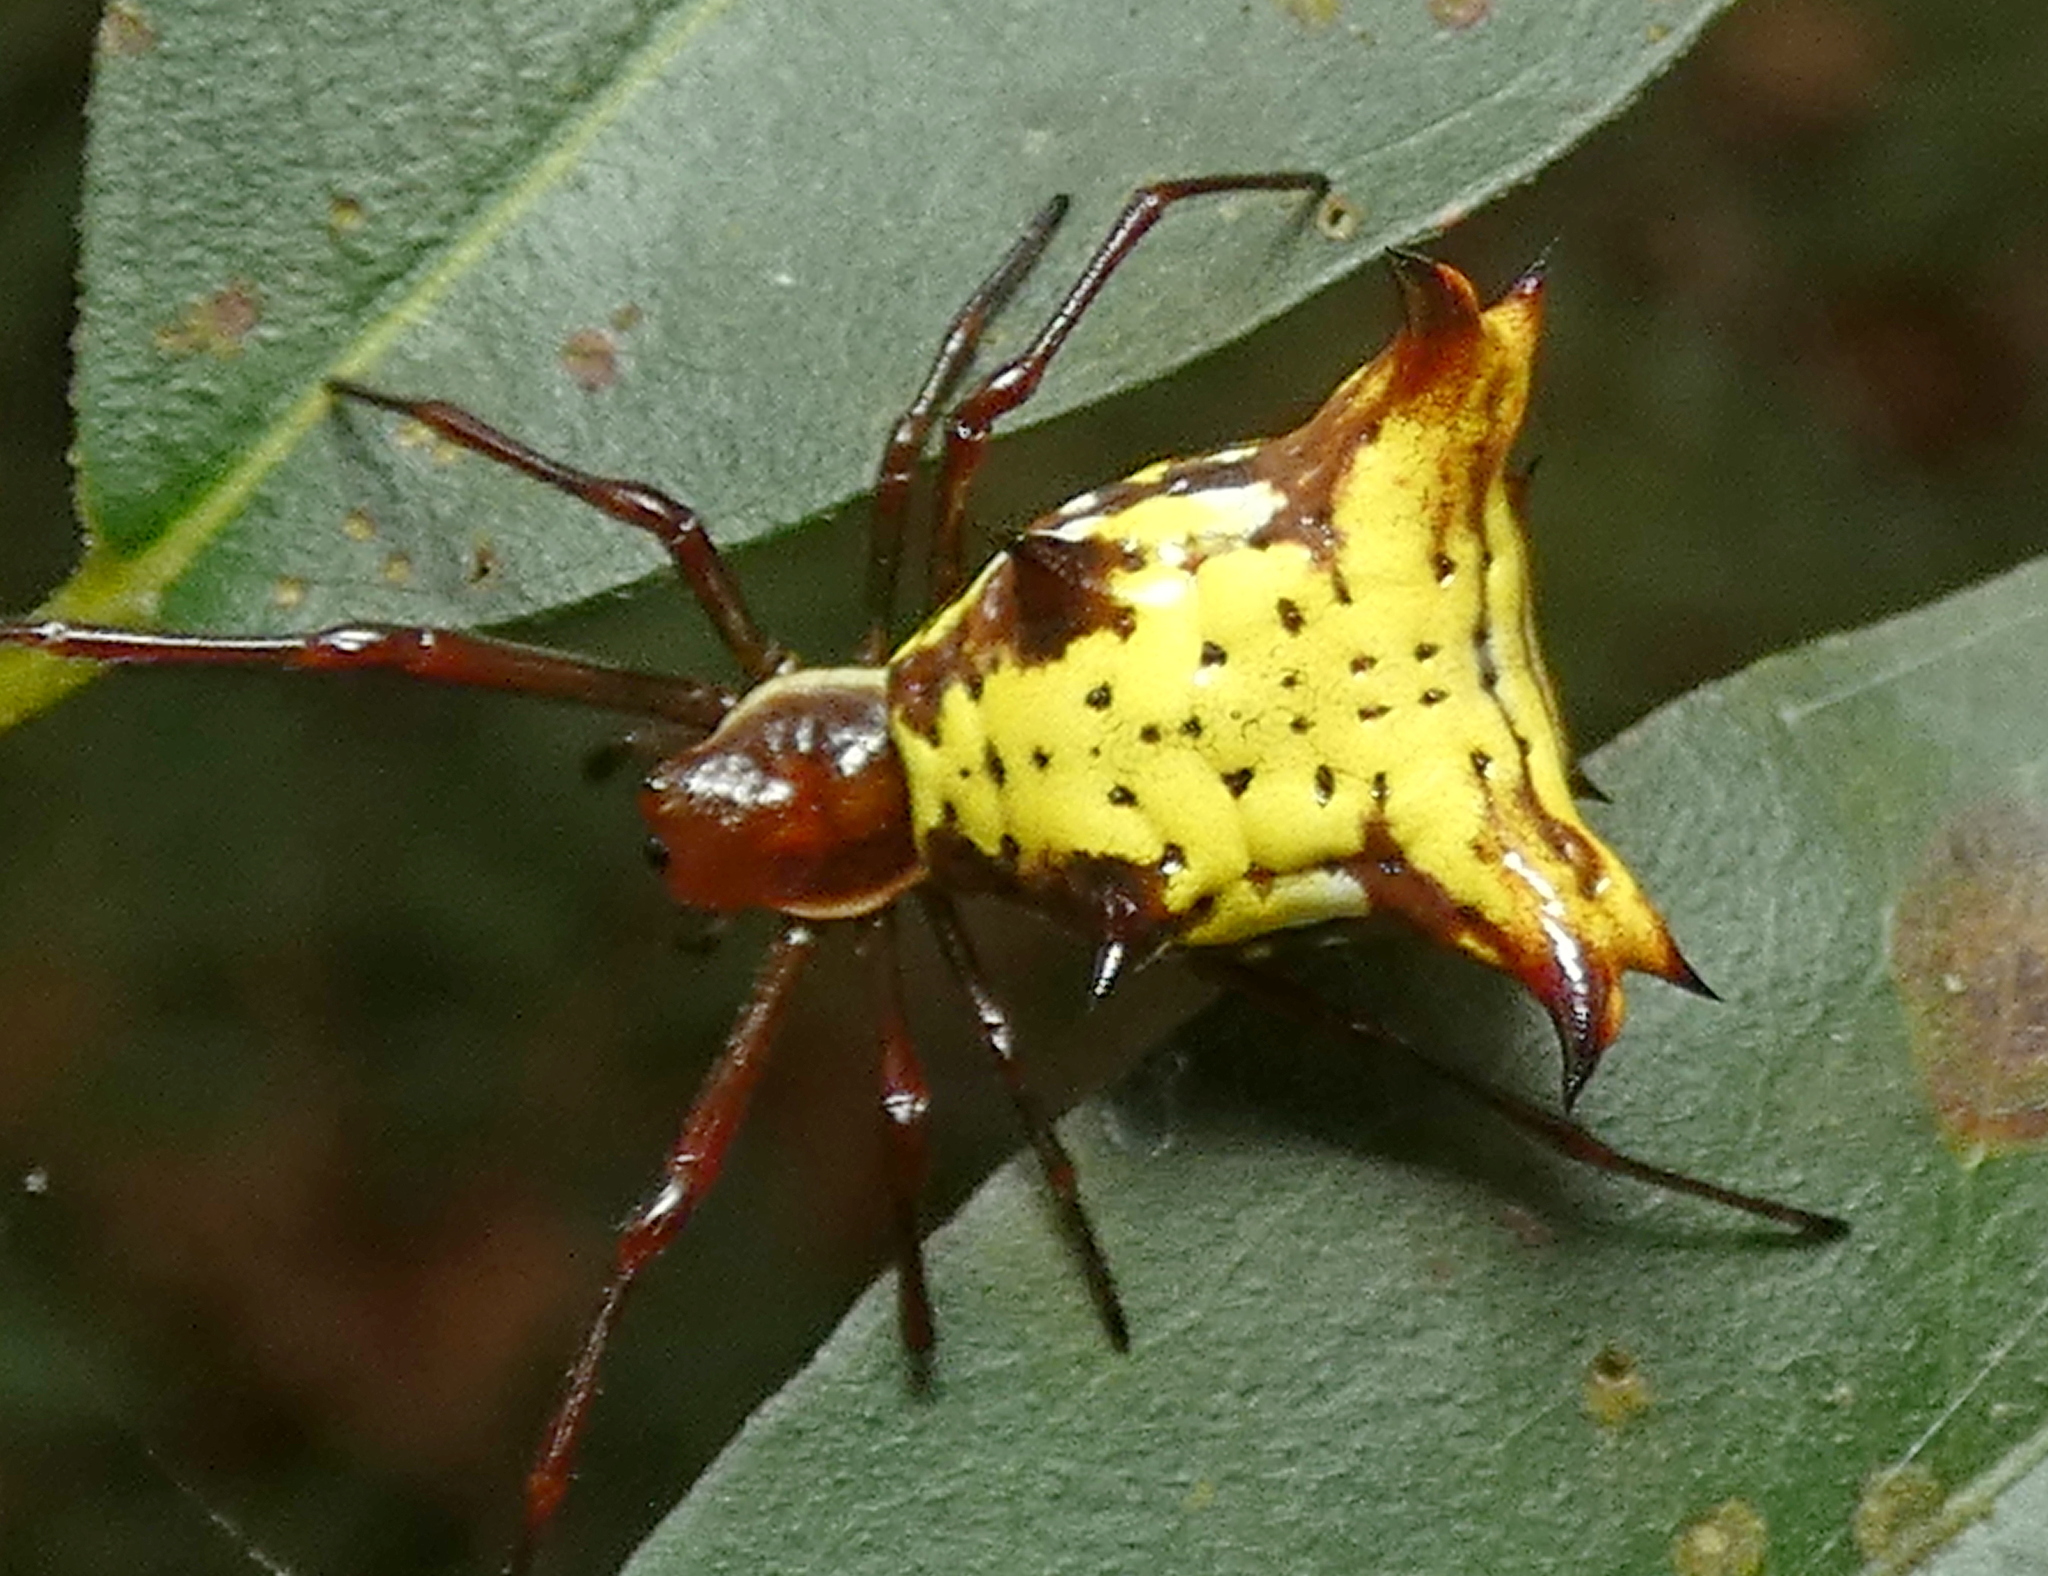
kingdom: Animalia
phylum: Arthropoda
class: Arachnida
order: Araneae
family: Araneidae
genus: Micrathena
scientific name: Micrathena fissispina
